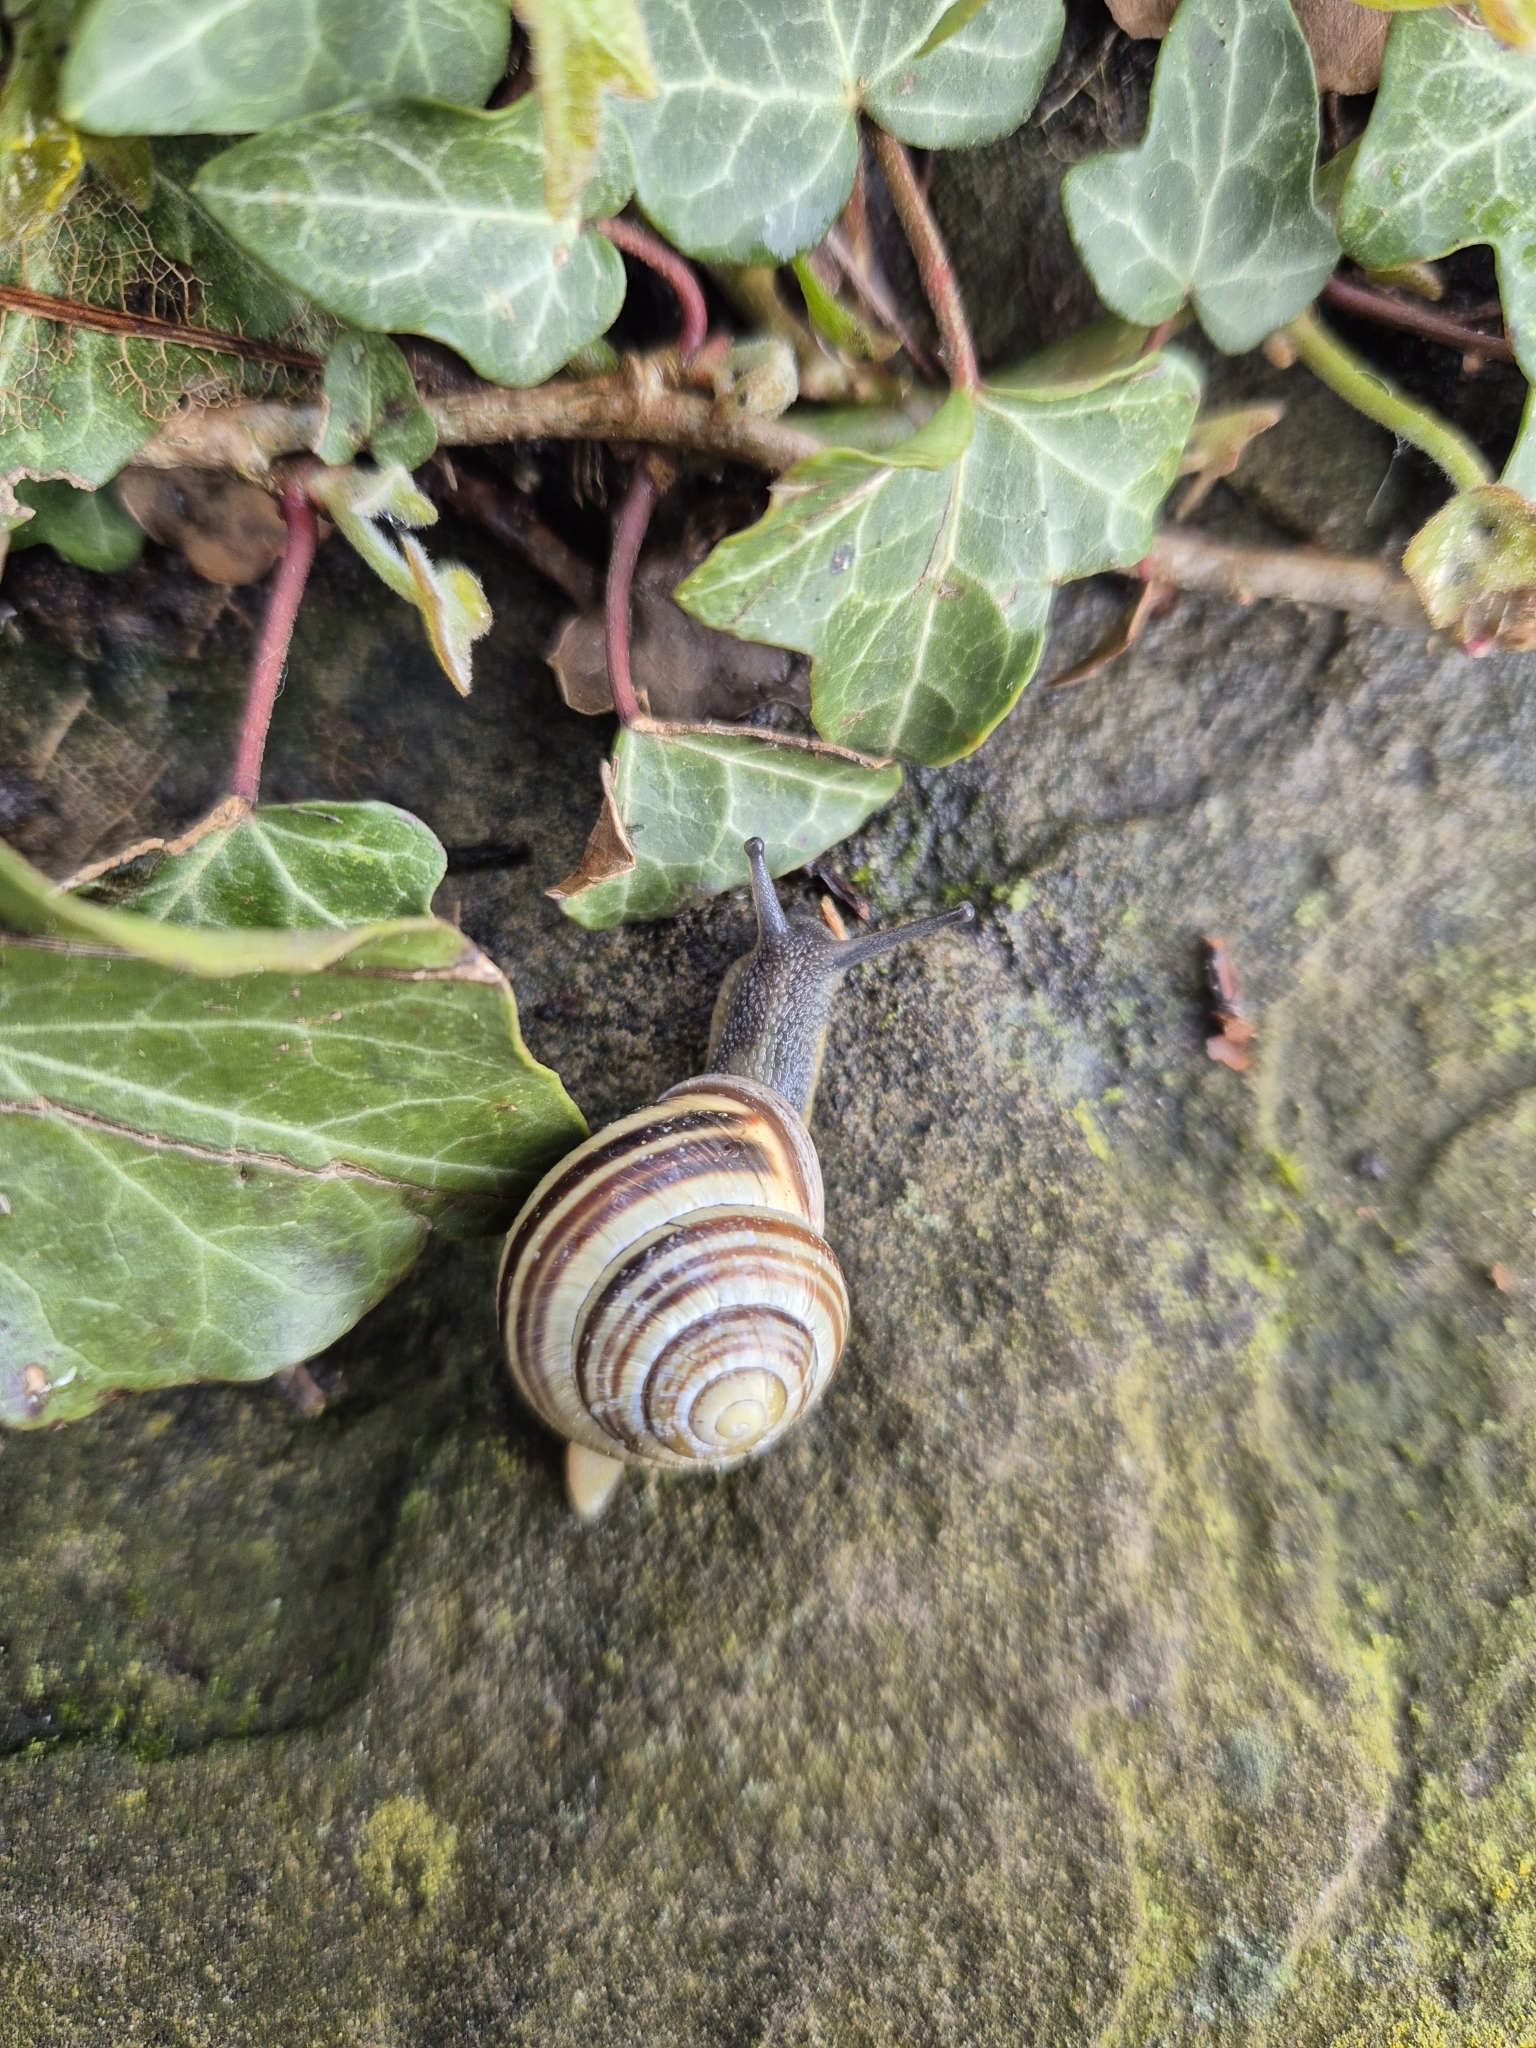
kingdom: Animalia
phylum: Mollusca
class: Gastropoda
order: Stylommatophora
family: Helicidae
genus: Cepaea
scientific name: Cepaea nemoralis
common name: Grovesnail
